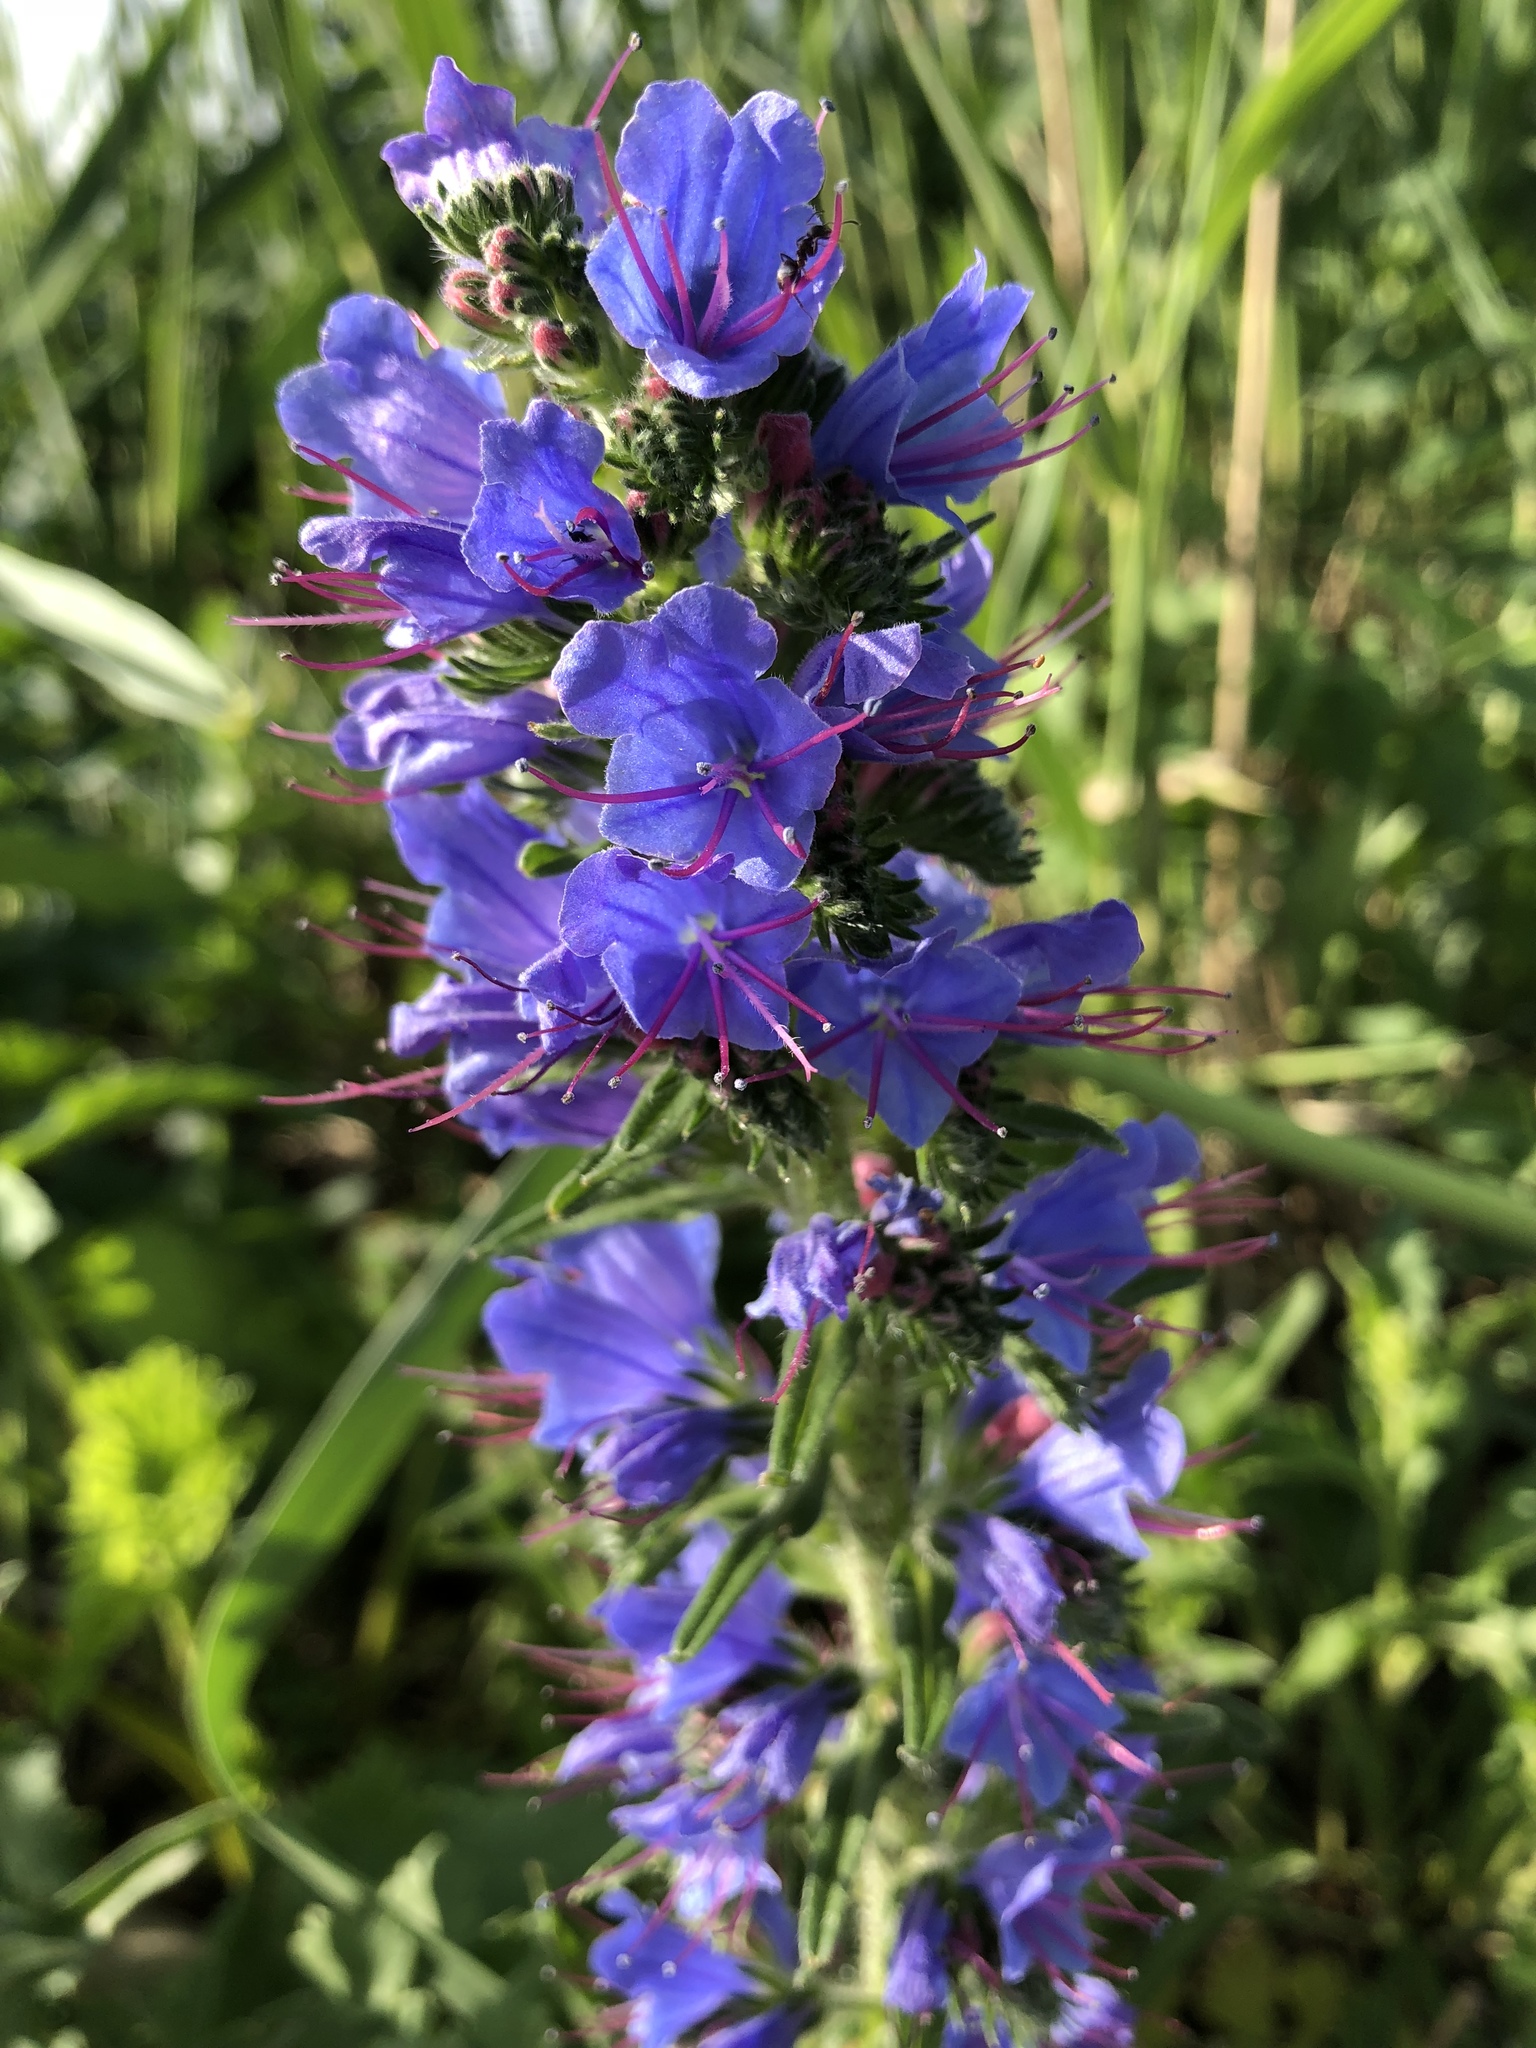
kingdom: Plantae
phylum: Tracheophyta
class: Magnoliopsida
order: Boraginales
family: Boraginaceae
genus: Echium
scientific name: Echium vulgare
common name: Common viper's bugloss
